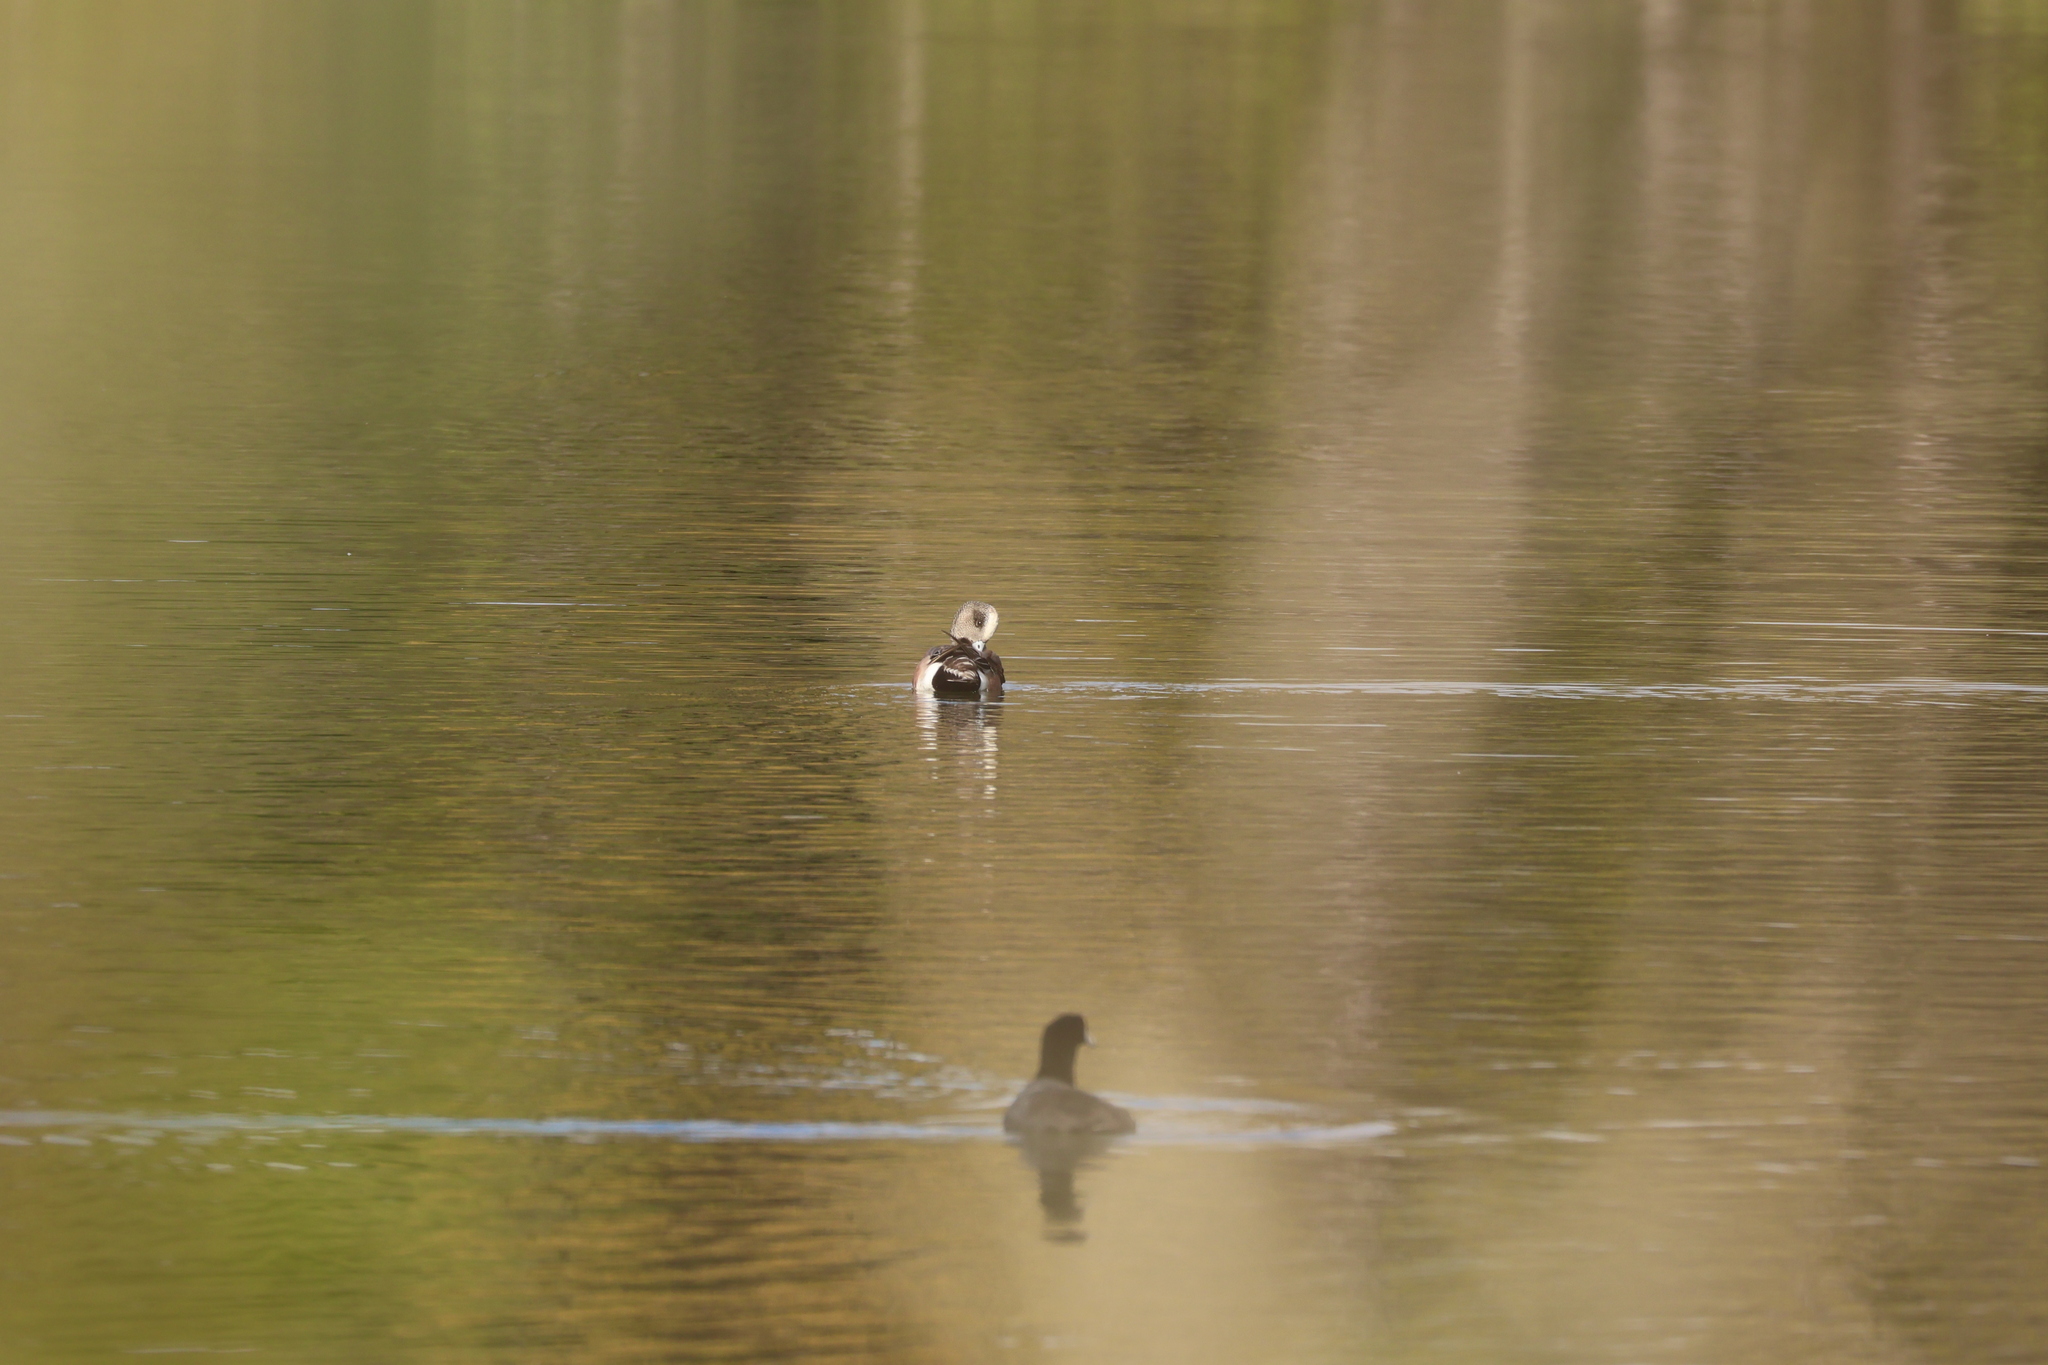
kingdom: Animalia
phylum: Chordata
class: Aves
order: Anseriformes
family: Anatidae
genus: Mareca
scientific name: Mareca americana
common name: American wigeon
